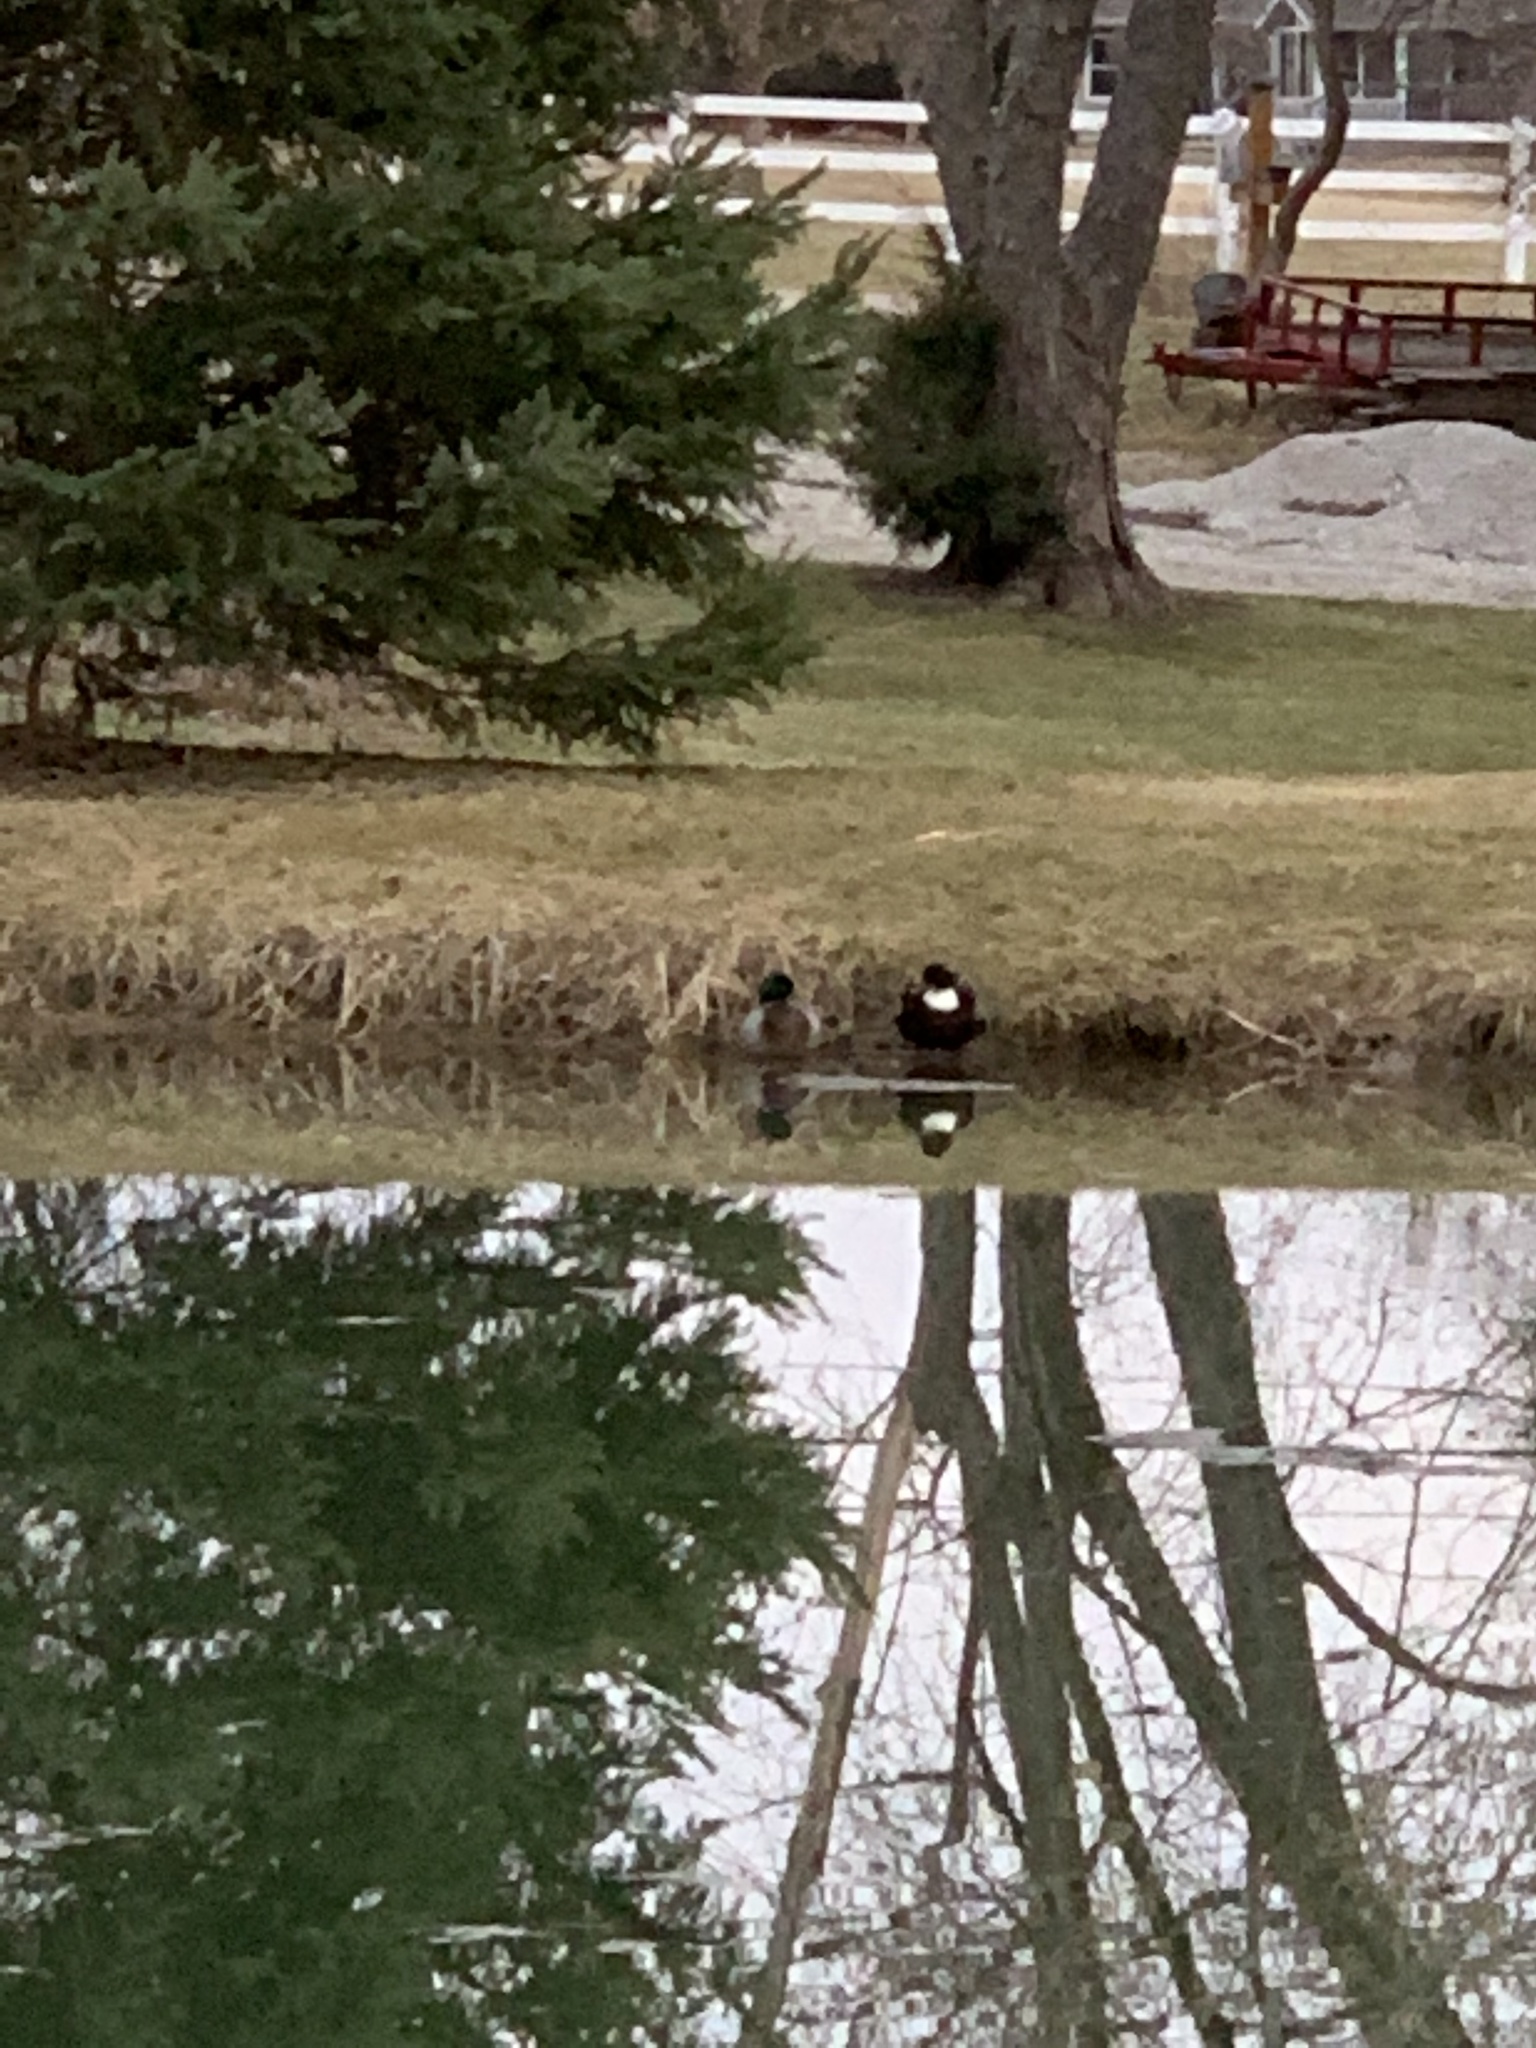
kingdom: Animalia
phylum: Chordata
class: Aves
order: Anseriformes
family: Anatidae
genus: Anas
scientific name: Anas platyrhynchos
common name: Mallard
